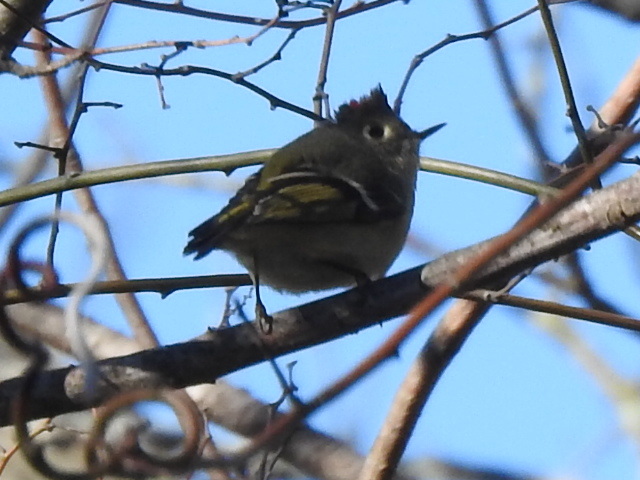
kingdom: Animalia
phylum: Chordata
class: Aves
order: Passeriformes
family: Regulidae
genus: Regulus
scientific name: Regulus calendula
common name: Ruby-crowned kinglet
